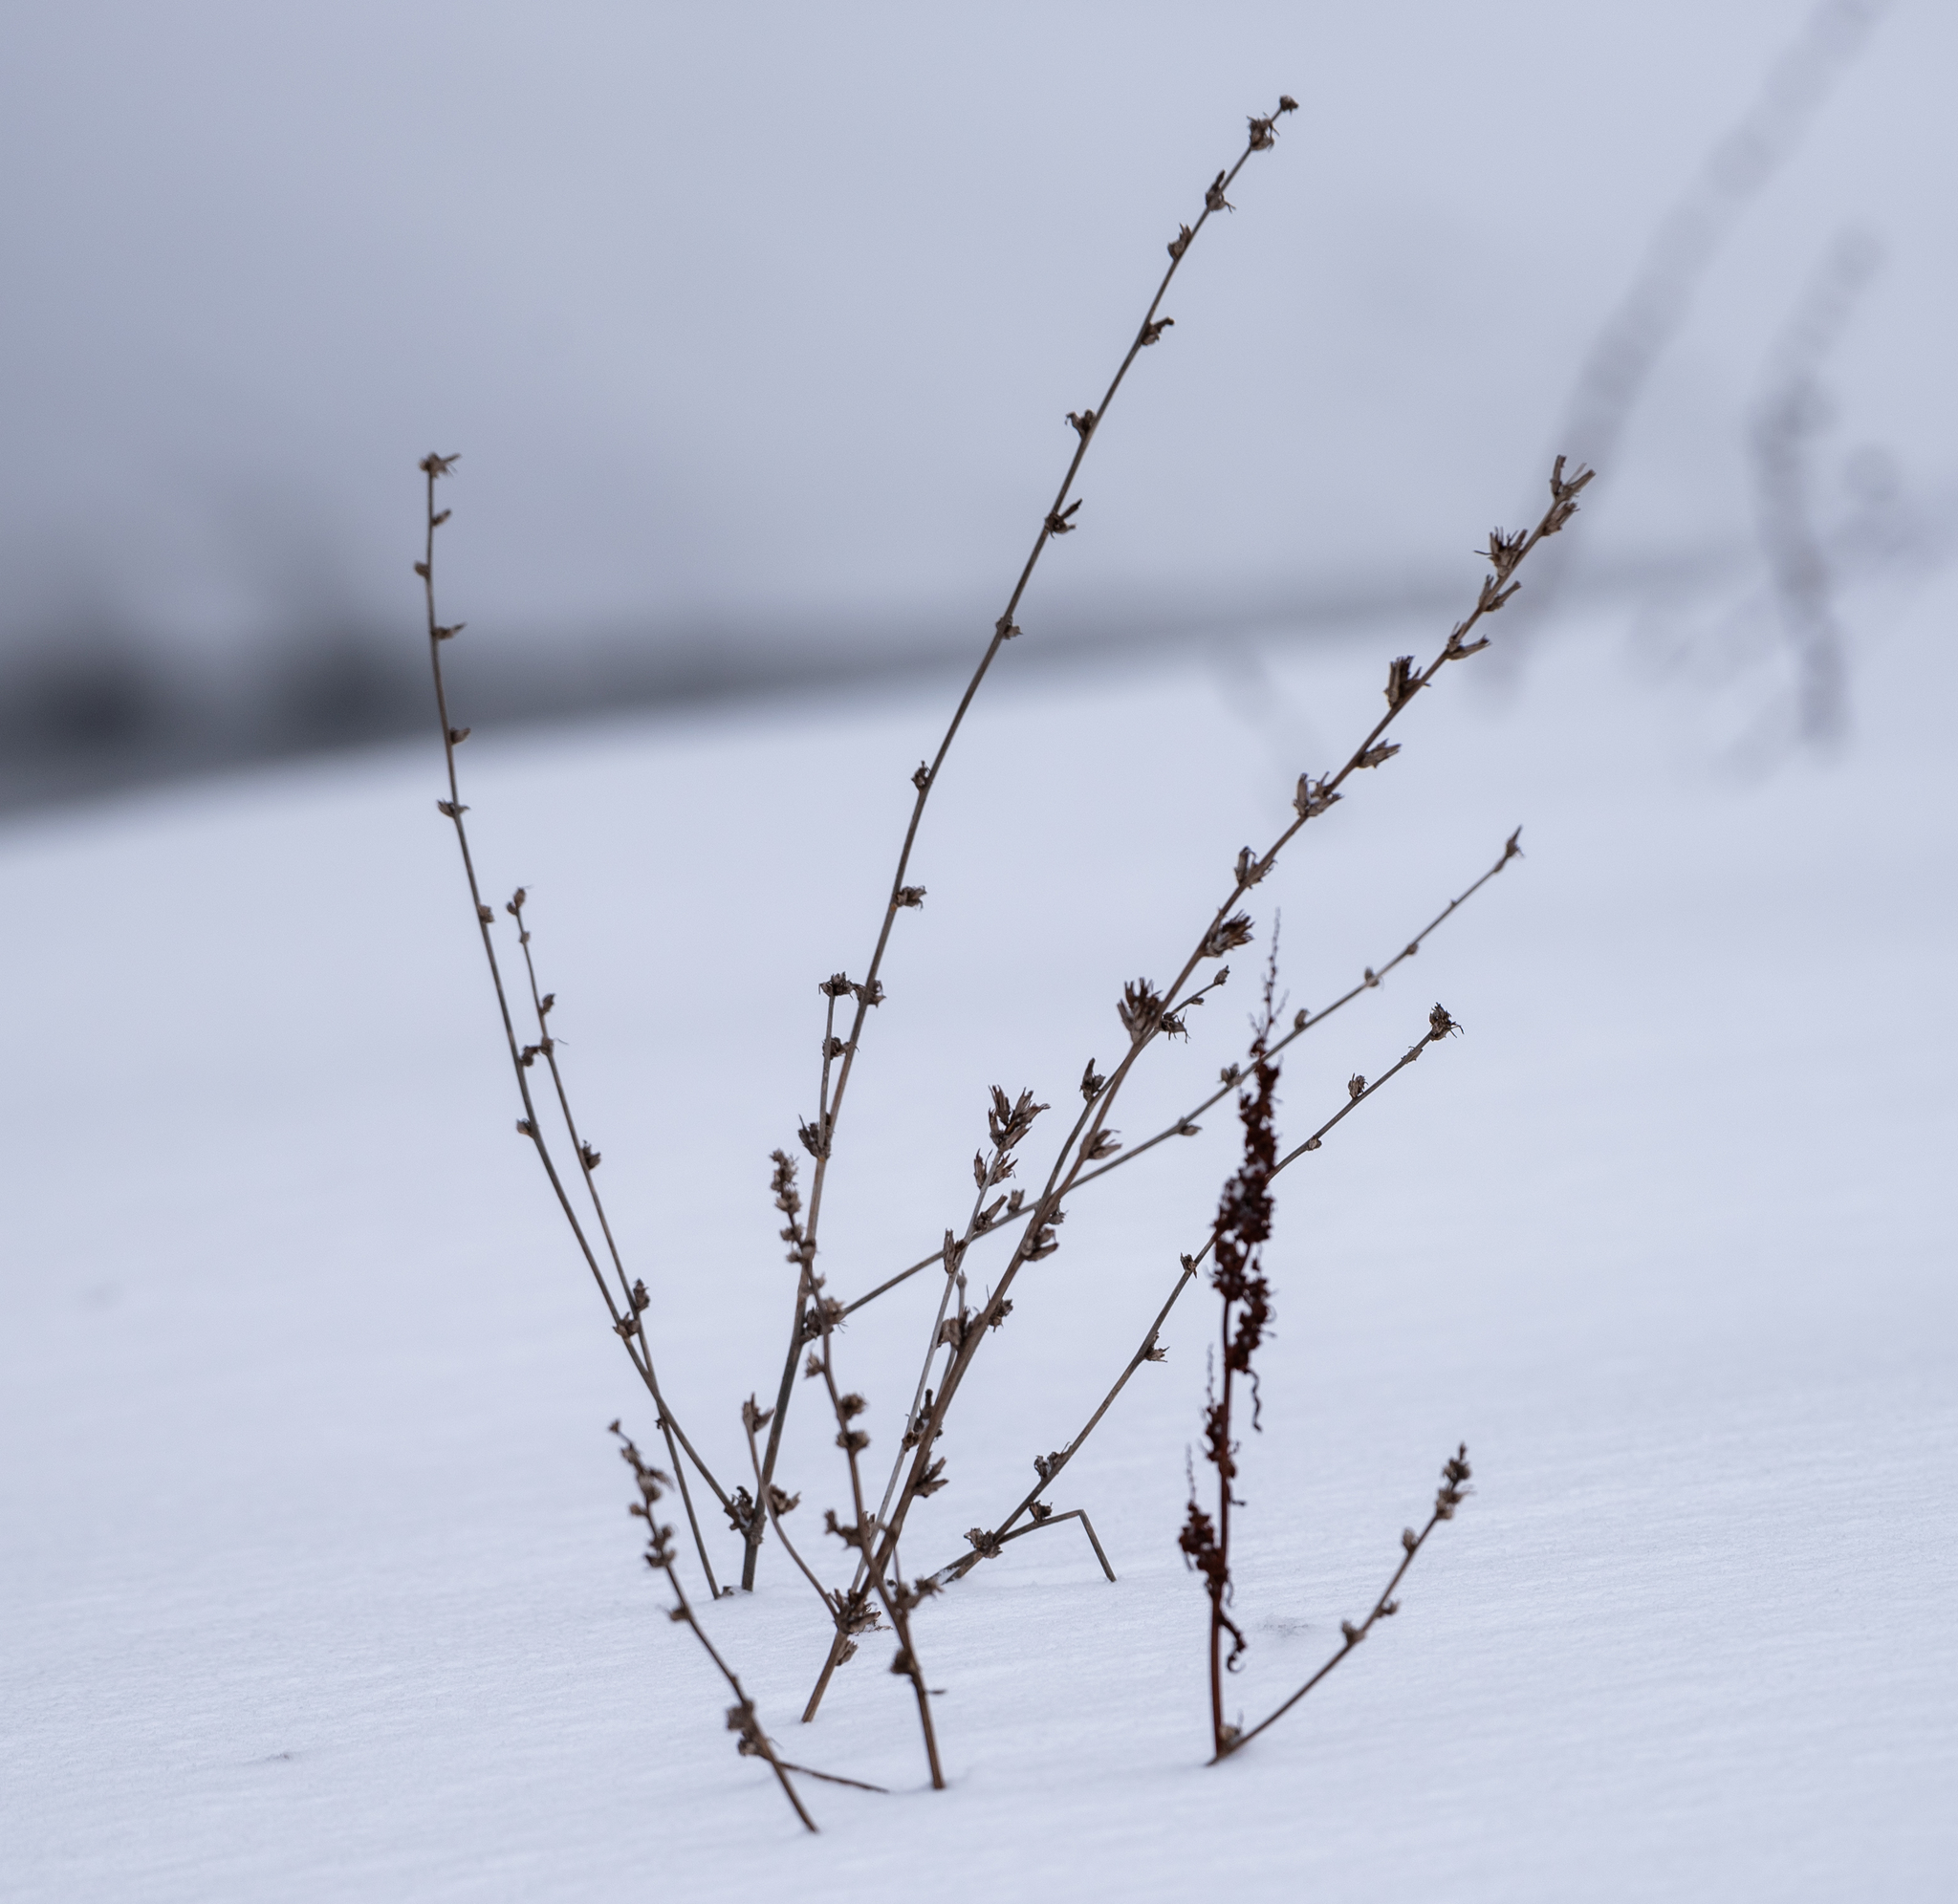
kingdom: Plantae
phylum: Tracheophyta
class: Magnoliopsida
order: Asterales
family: Asteraceae
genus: Cichorium
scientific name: Cichorium intybus
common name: Chicory
